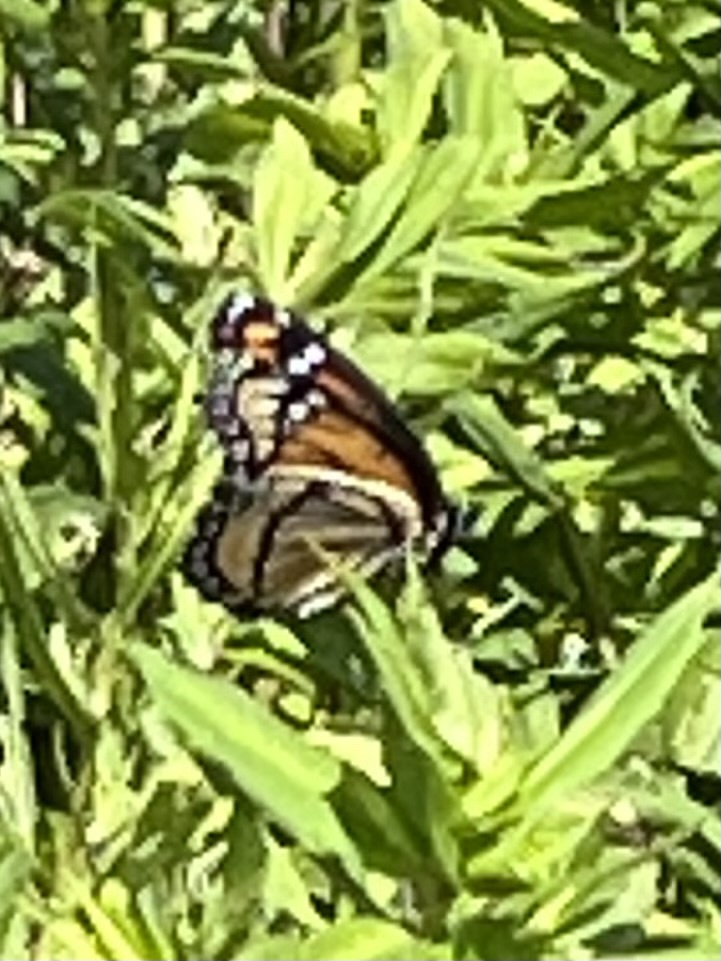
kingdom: Animalia
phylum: Arthropoda
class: Insecta
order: Lepidoptera
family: Nymphalidae
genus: Limenitis
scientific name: Limenitis archippus
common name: Viceroy
